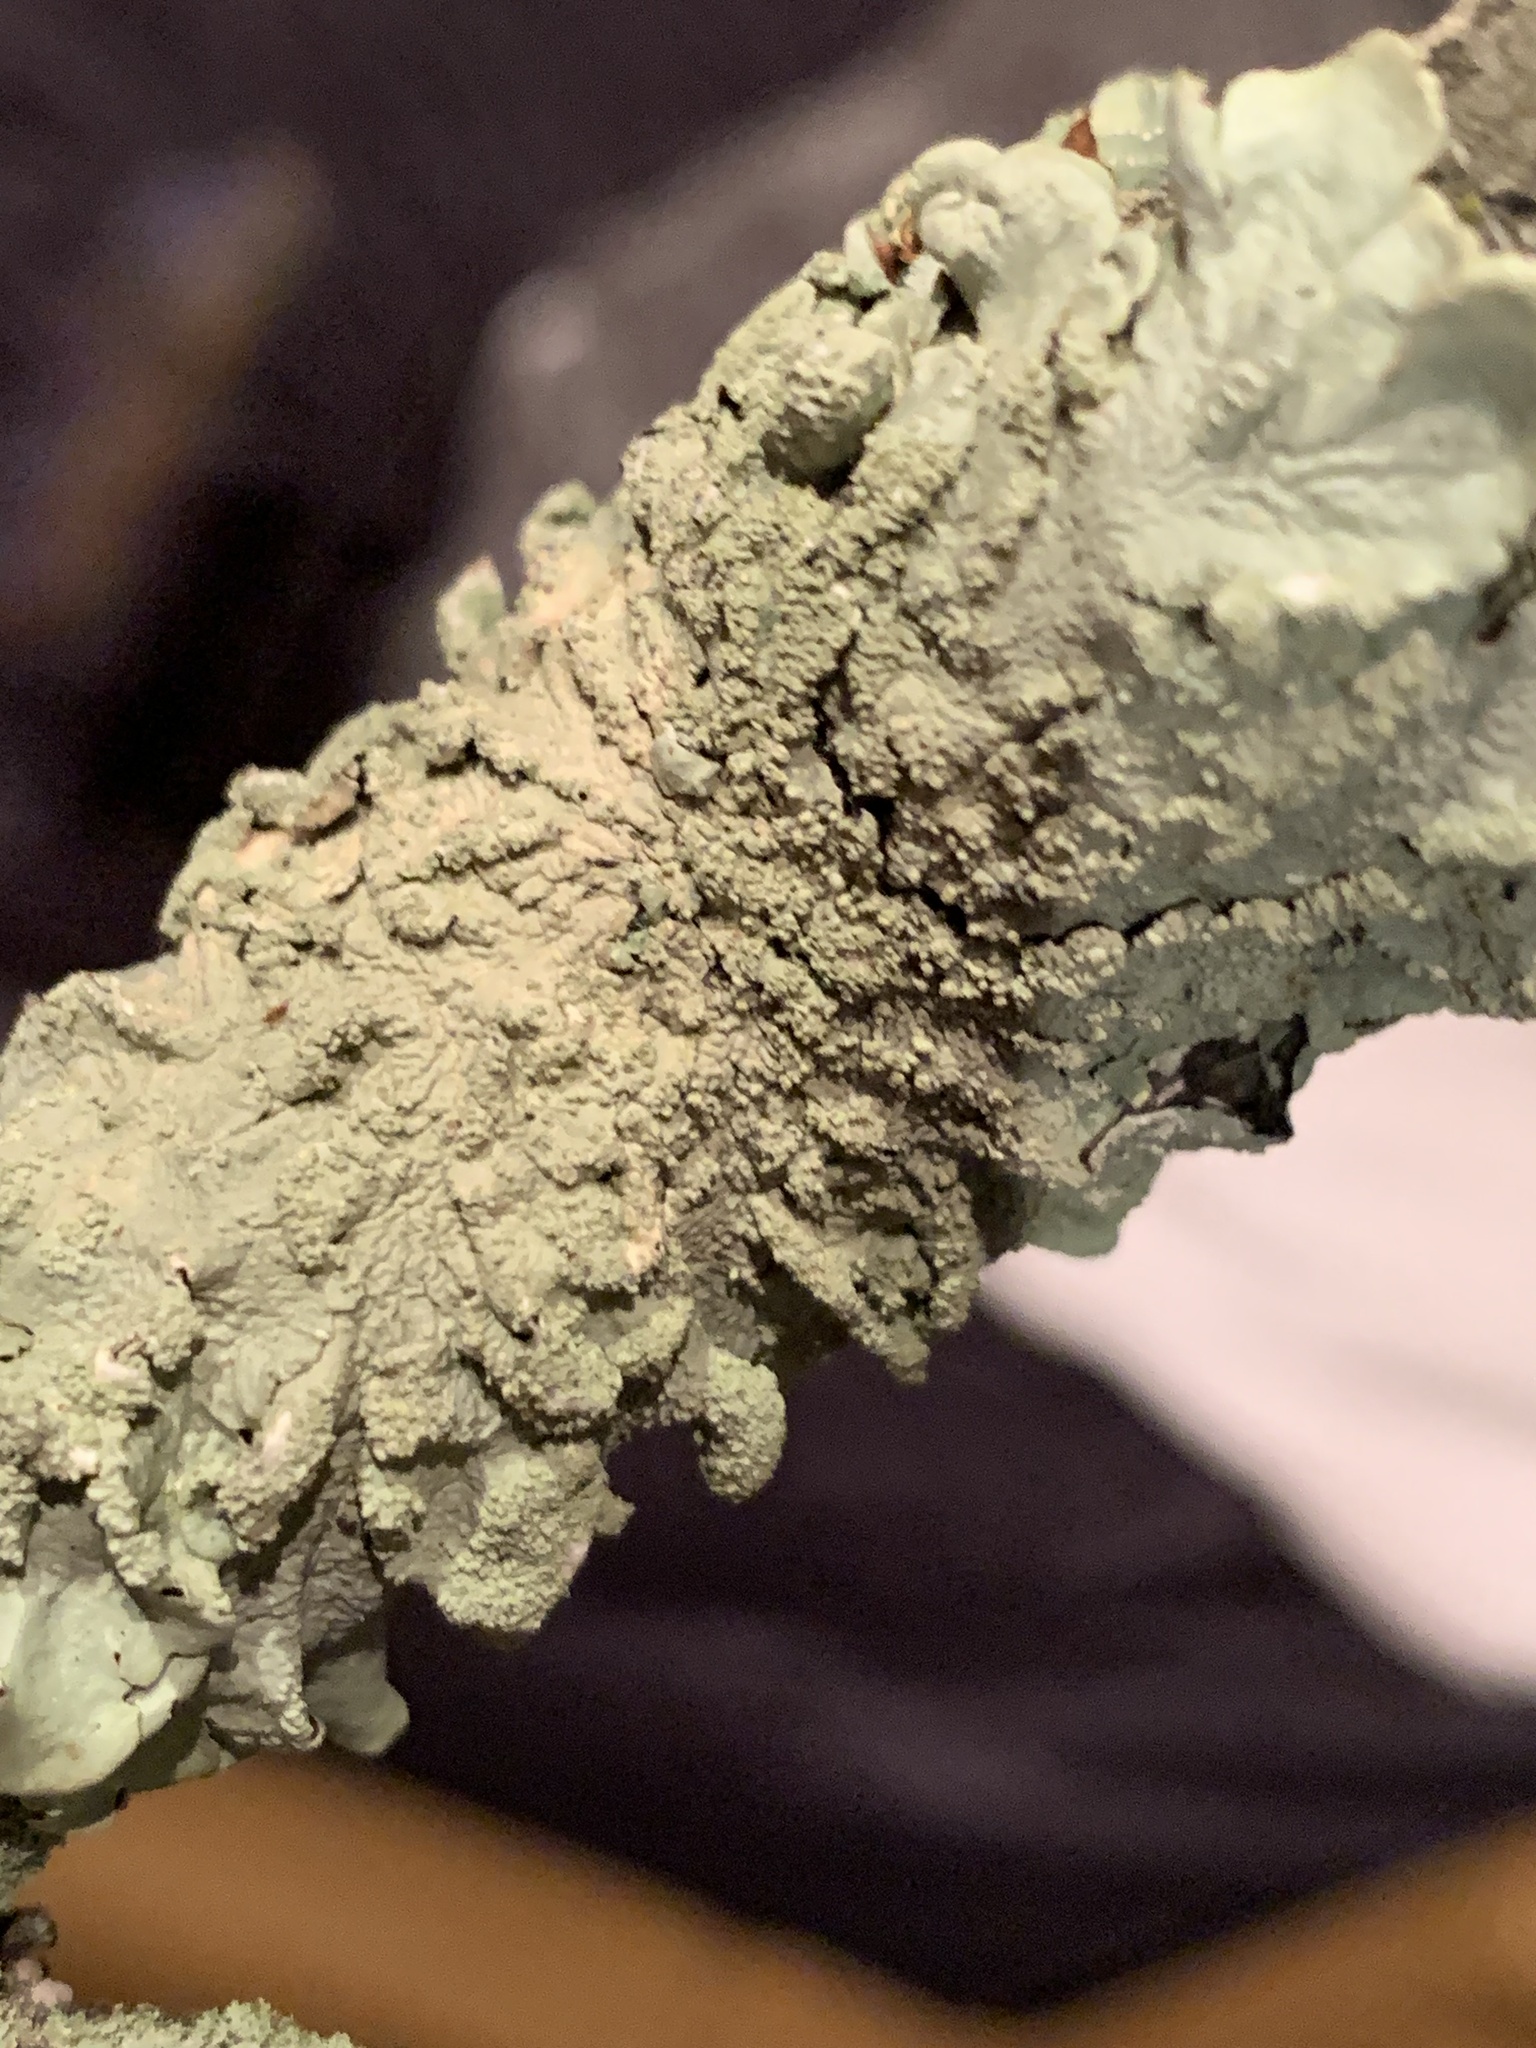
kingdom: Fungi
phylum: Ascomycota
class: Lecanoromycetes
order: Lecanorales
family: Parmeliaceae
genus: Flavoparmelia
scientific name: Flavoparmelia caperata
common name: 40-mile per hour lichen
